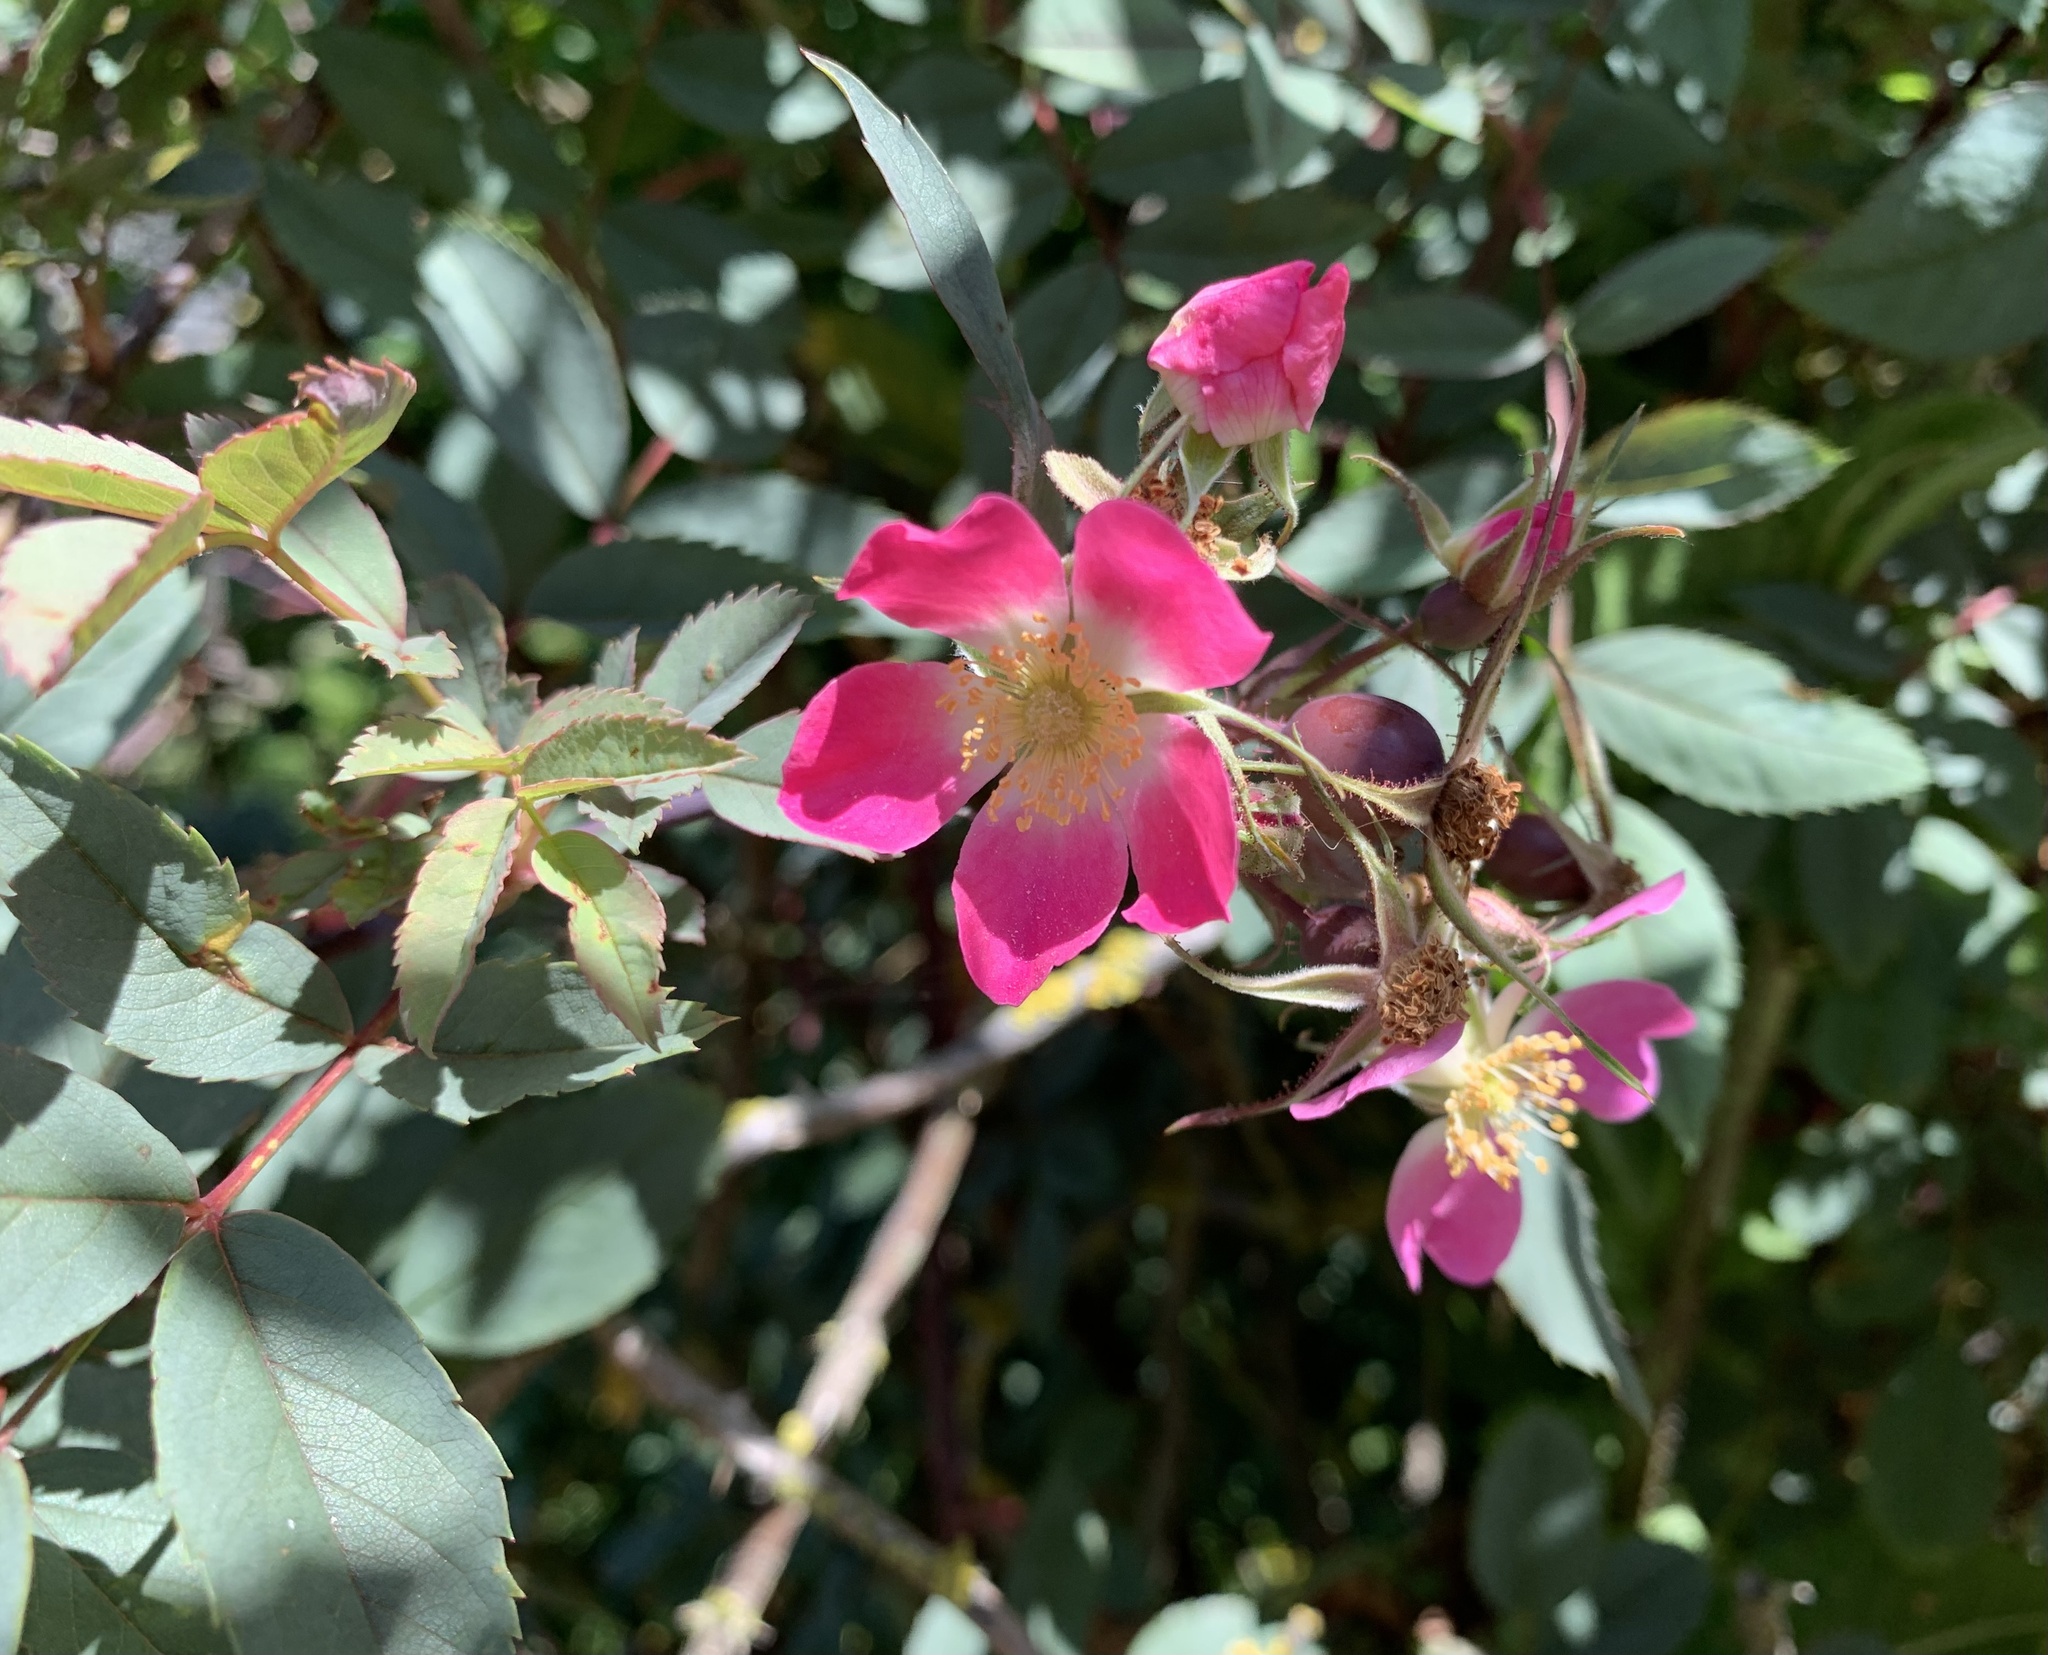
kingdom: Plantae
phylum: Tracheophyta
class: Magnoliopsida
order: Rosales
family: Rosaceae
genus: Rosa
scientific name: Rosa glauca
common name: Redleaf rose
